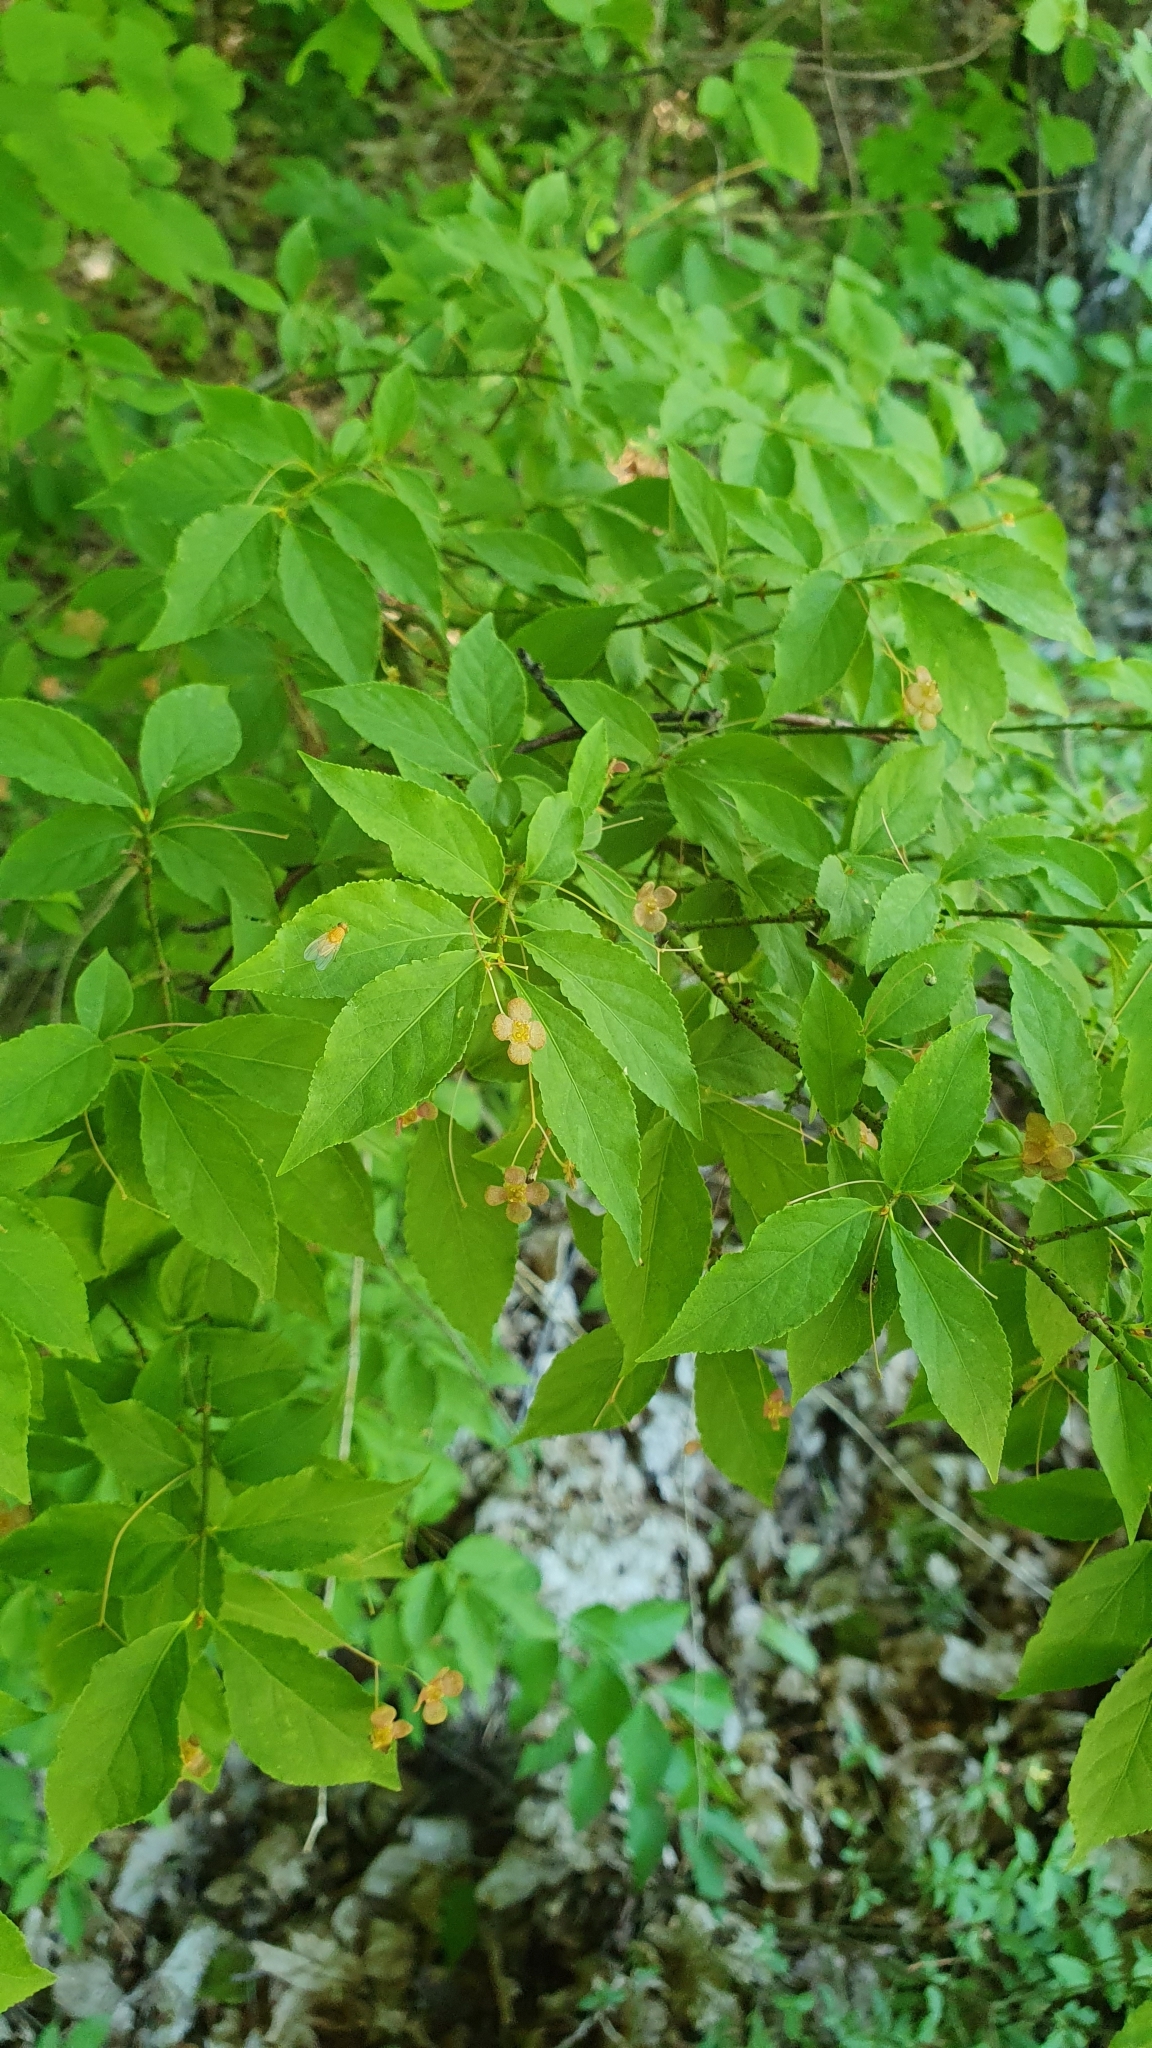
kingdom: Plantae
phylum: Tracheophyta
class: Magnoliopsida
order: Celastrales
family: Celastraceae
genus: Euonymus
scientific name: Euonymus verrucosus
